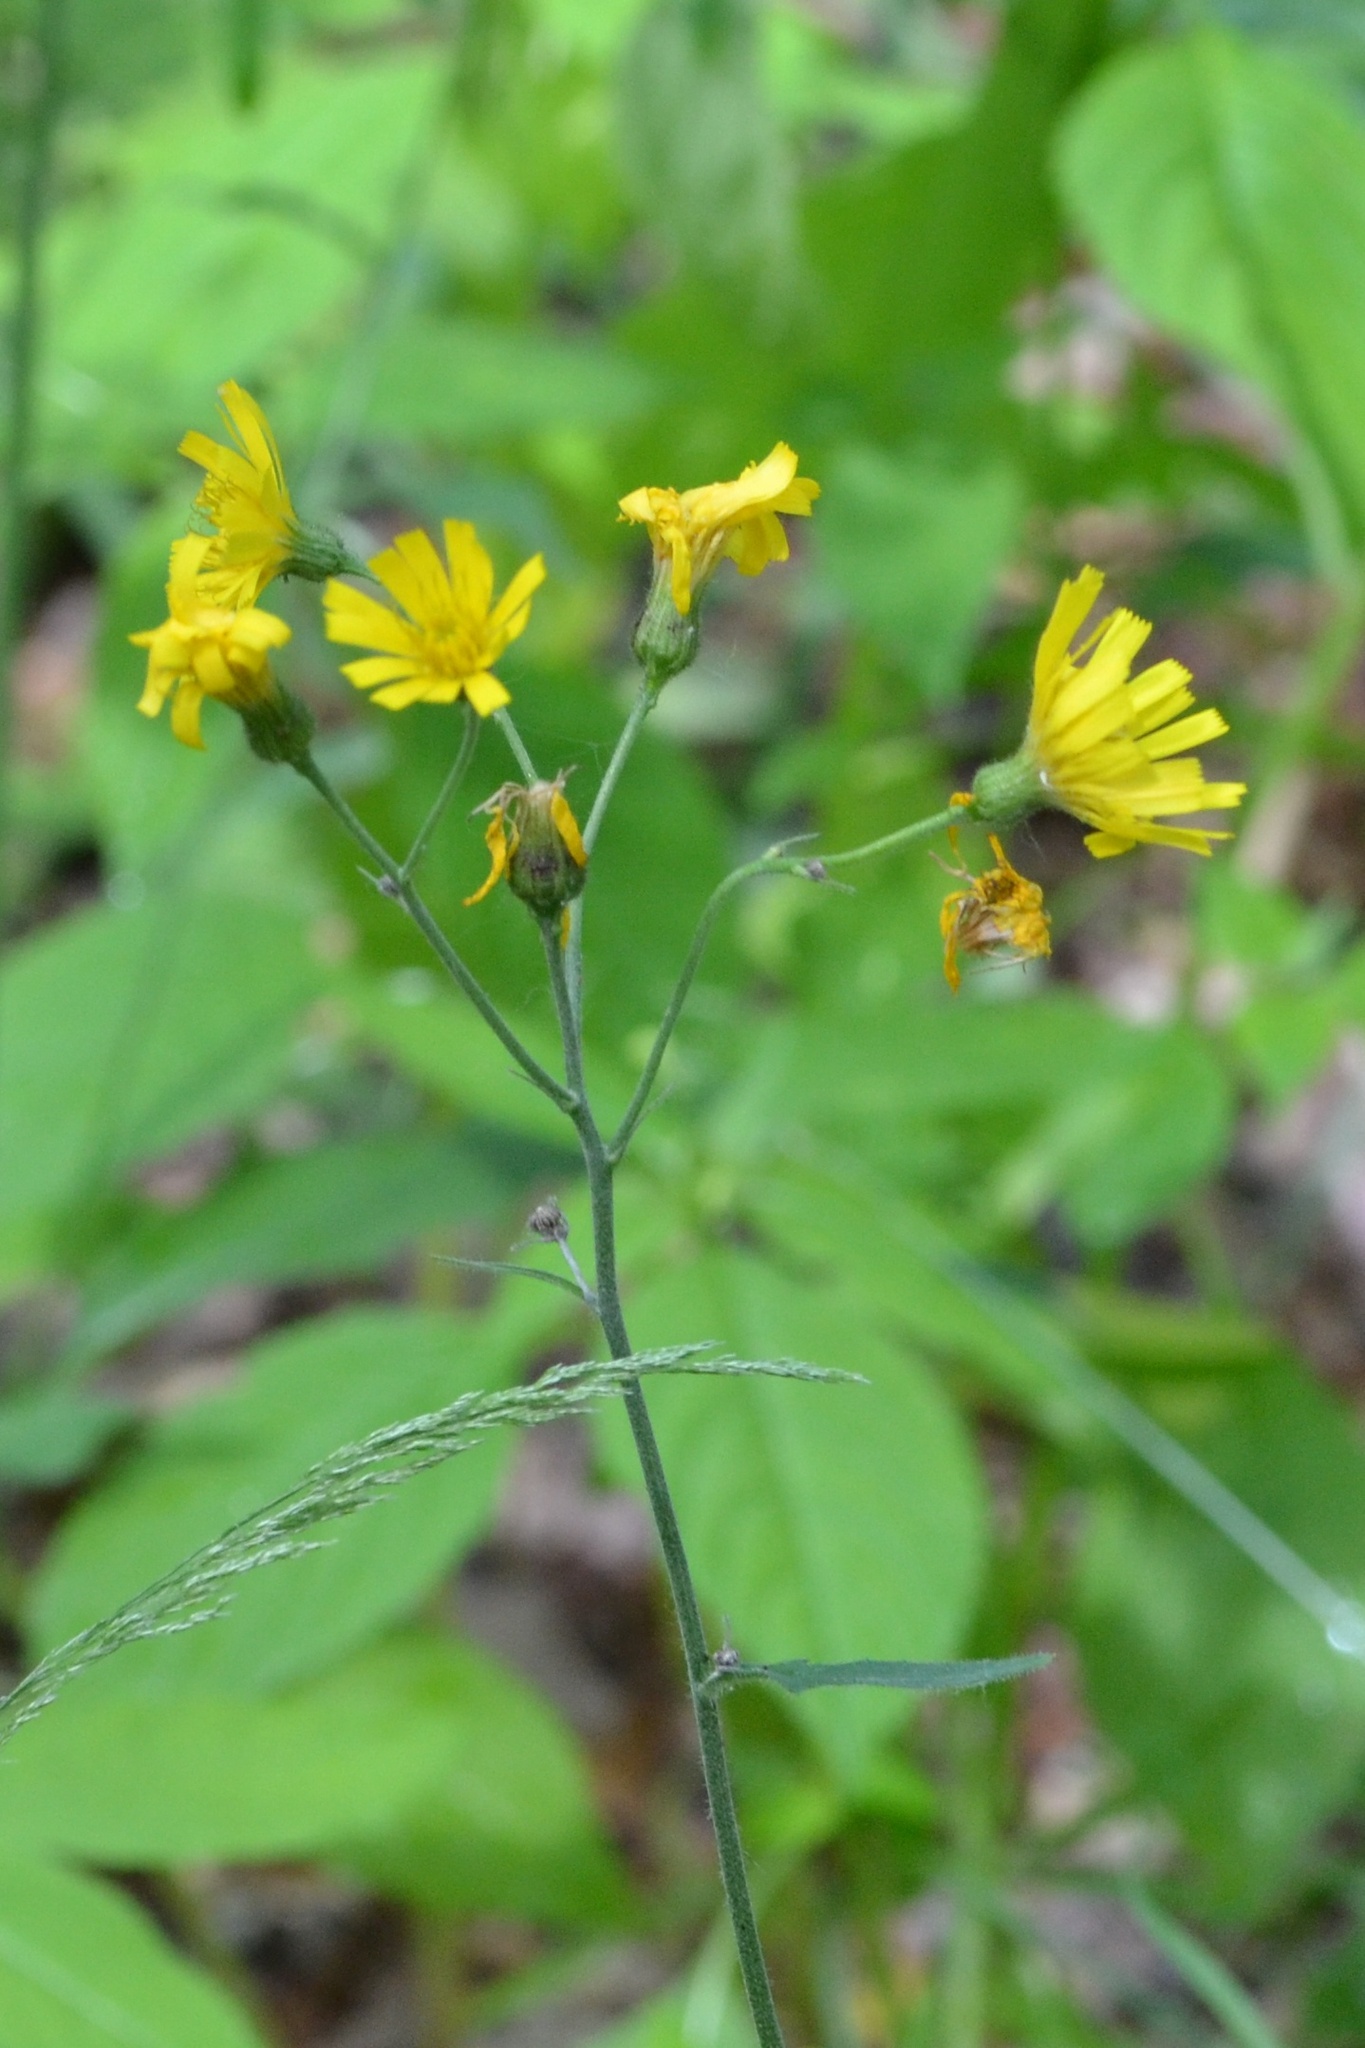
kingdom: Plantae
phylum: Tracheophyta
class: Magnoliopsida
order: Asterales
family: Asteraceae
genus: Hieracium
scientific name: Hieracium murorum
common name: Wall hawkweed
